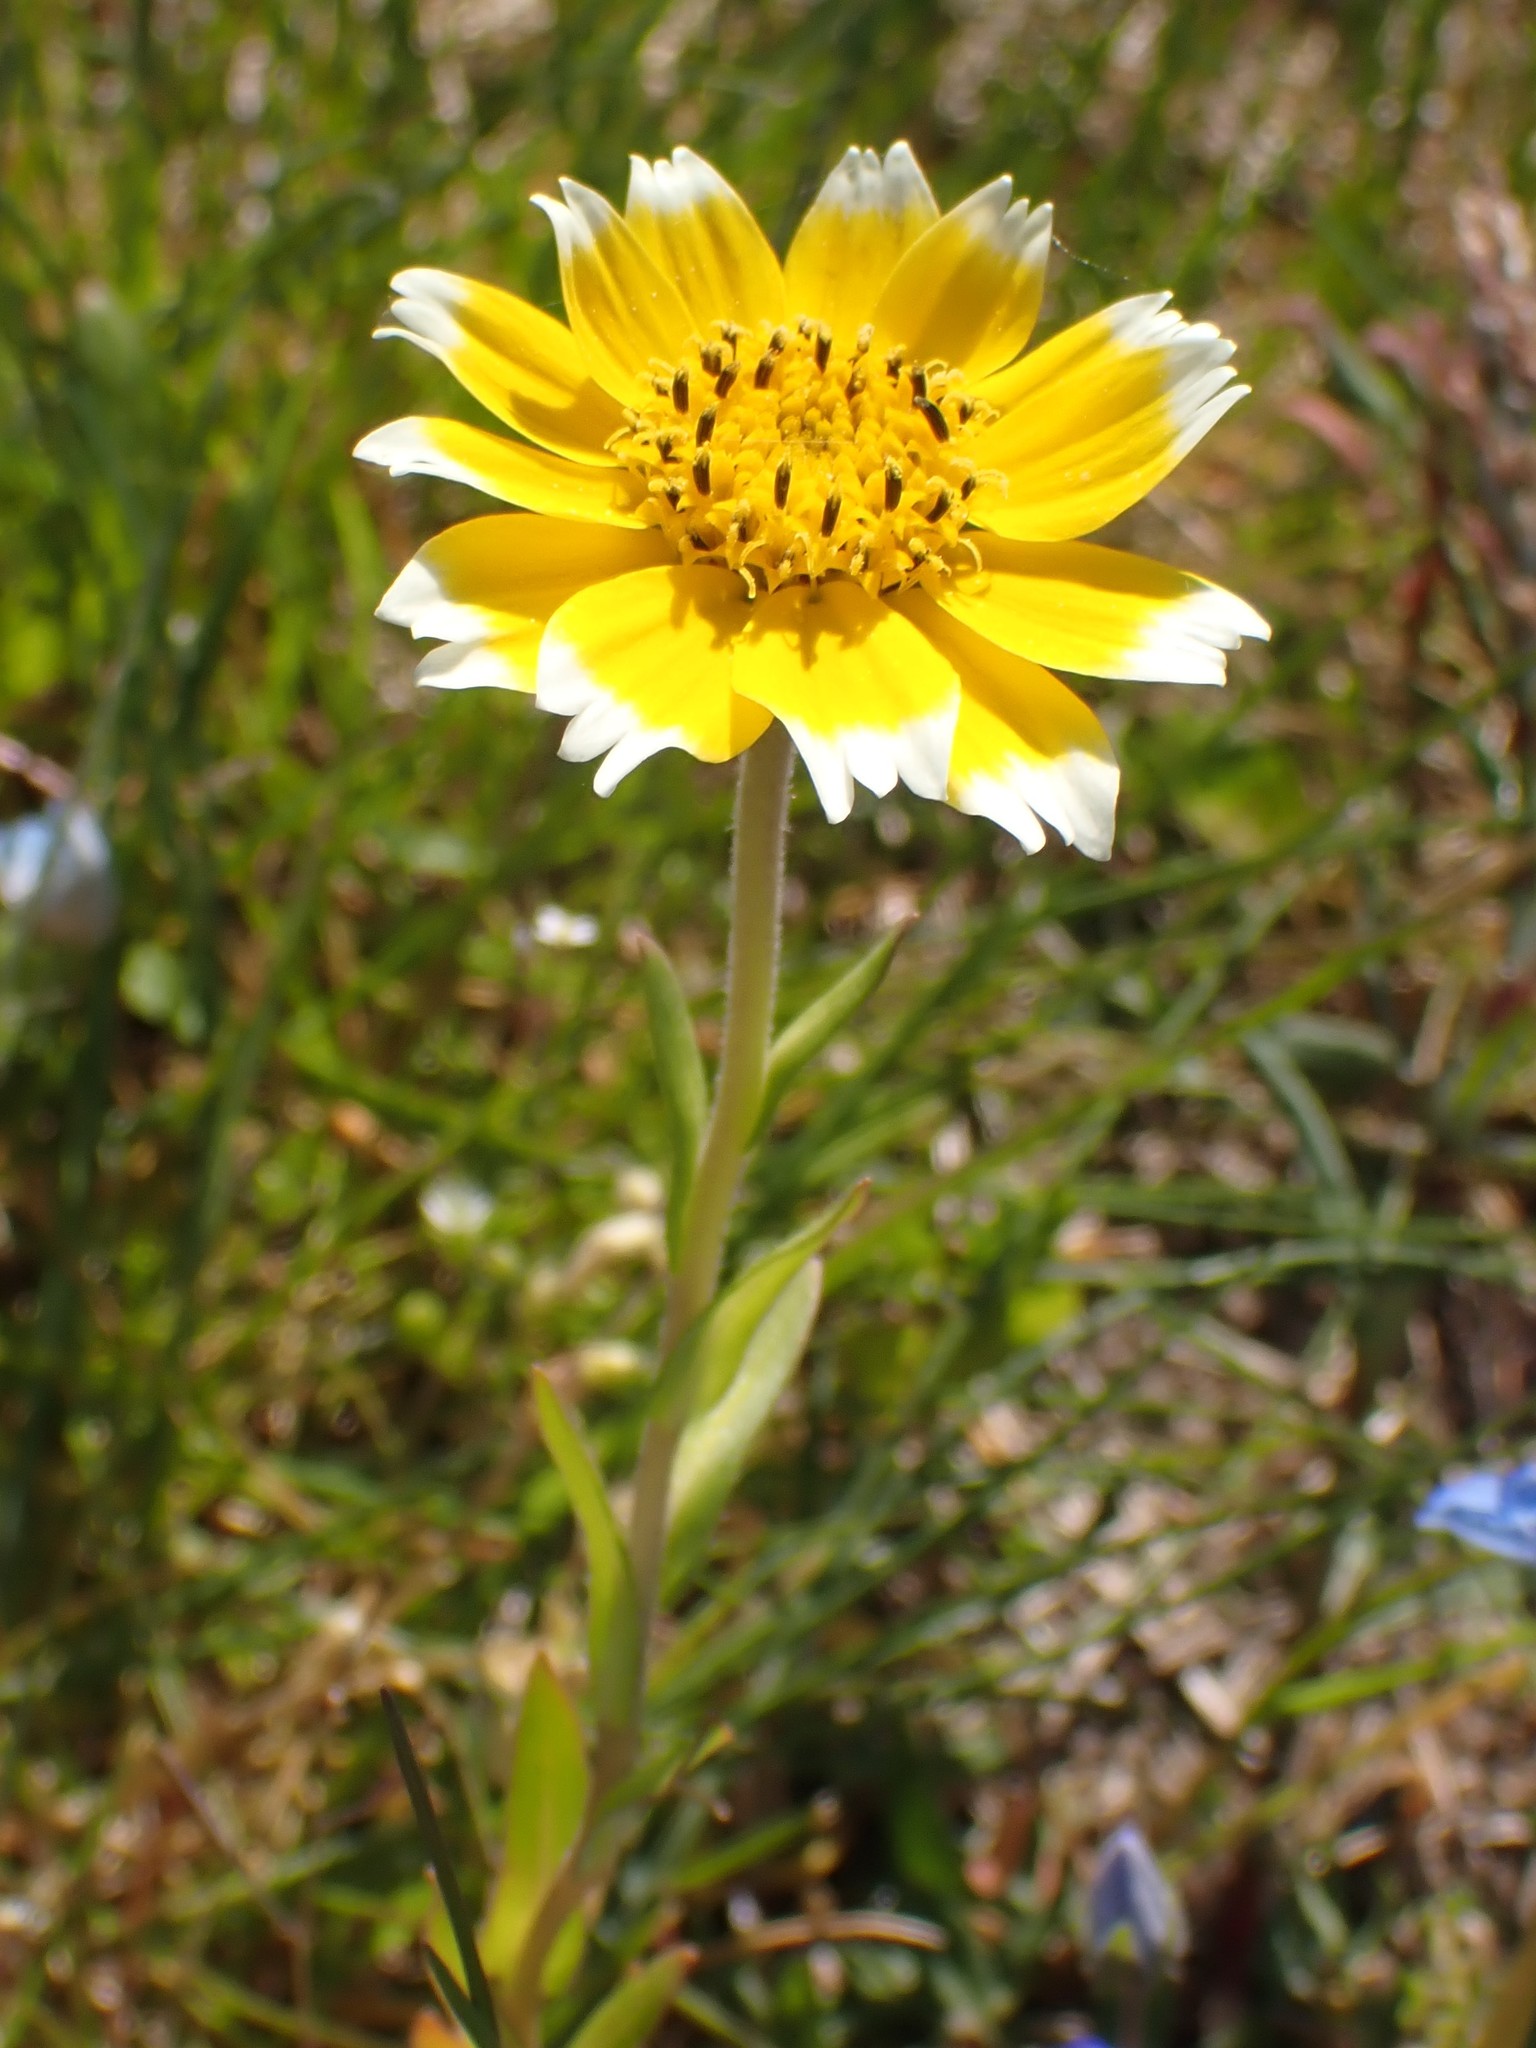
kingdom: Plantae
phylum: Tracheophyta
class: Magnoliopsida
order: Asterales
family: Asteraceae
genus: Layia
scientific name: Layia platyglossa
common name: Tidy-tips
